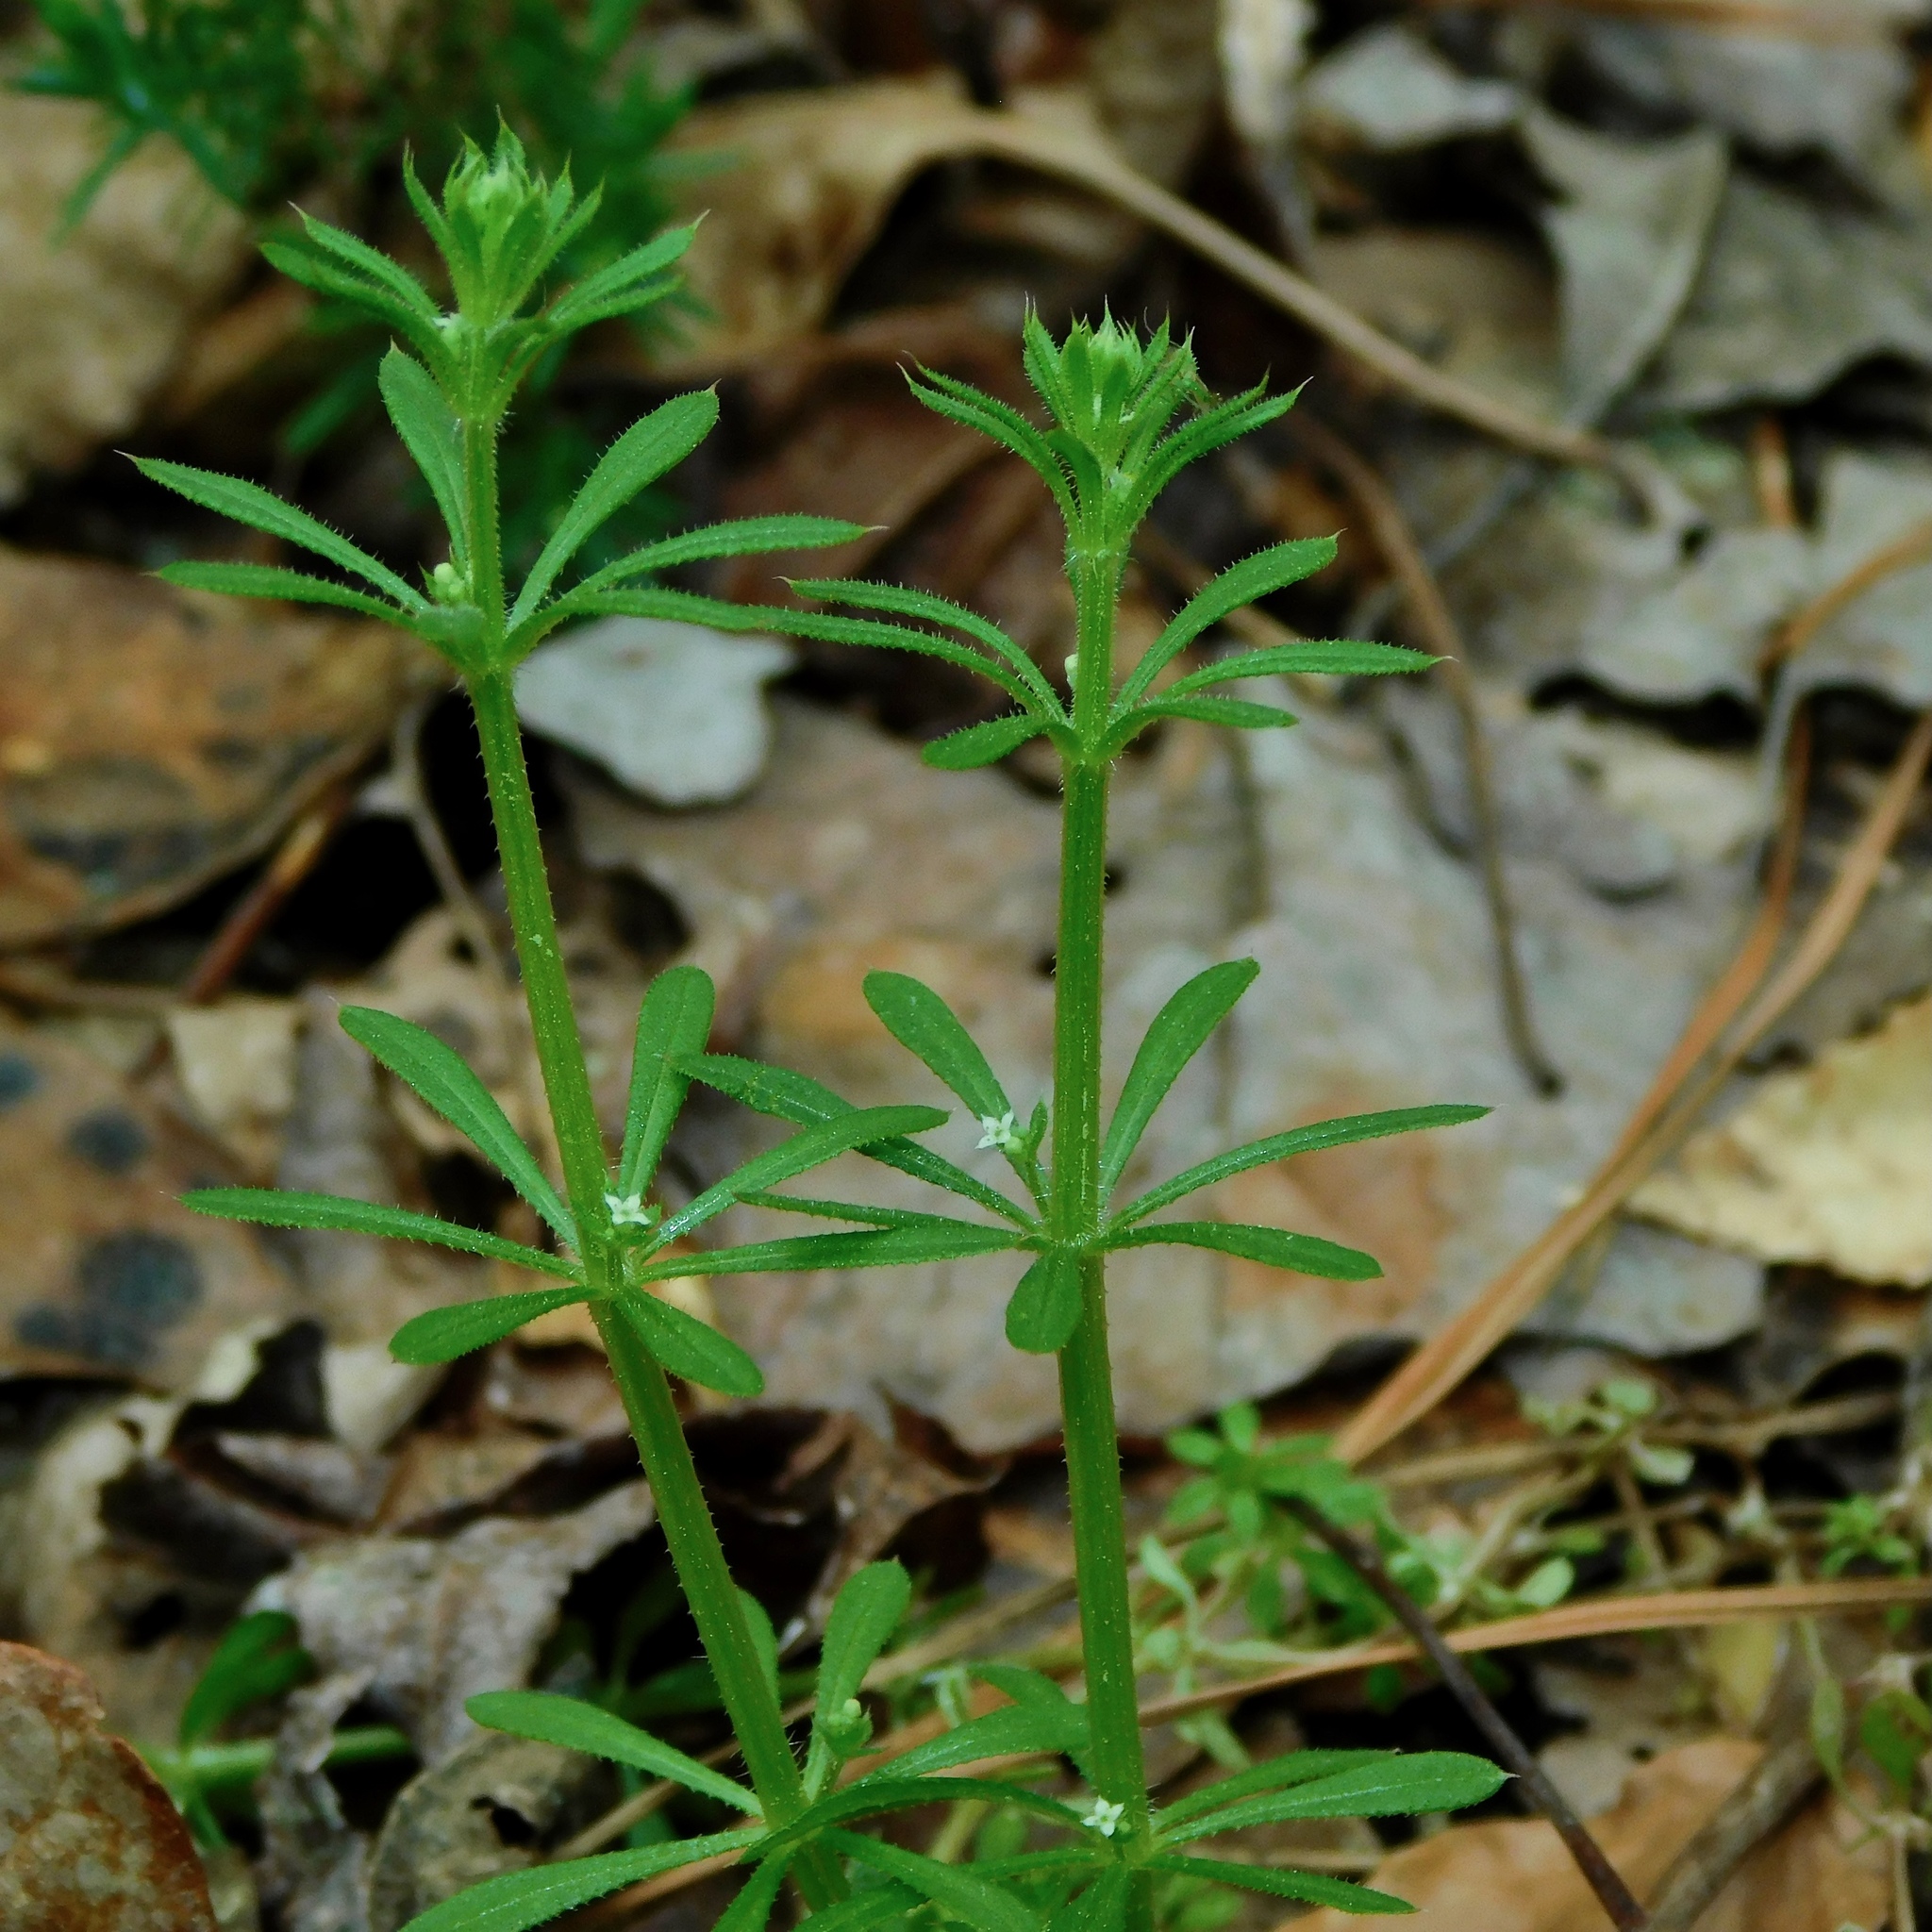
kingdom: Plantae
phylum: Tracheophyta
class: Magnoliopsida
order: Gentianales
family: Rubiaceae
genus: Galium
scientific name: Galium aparine
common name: Cleavers
